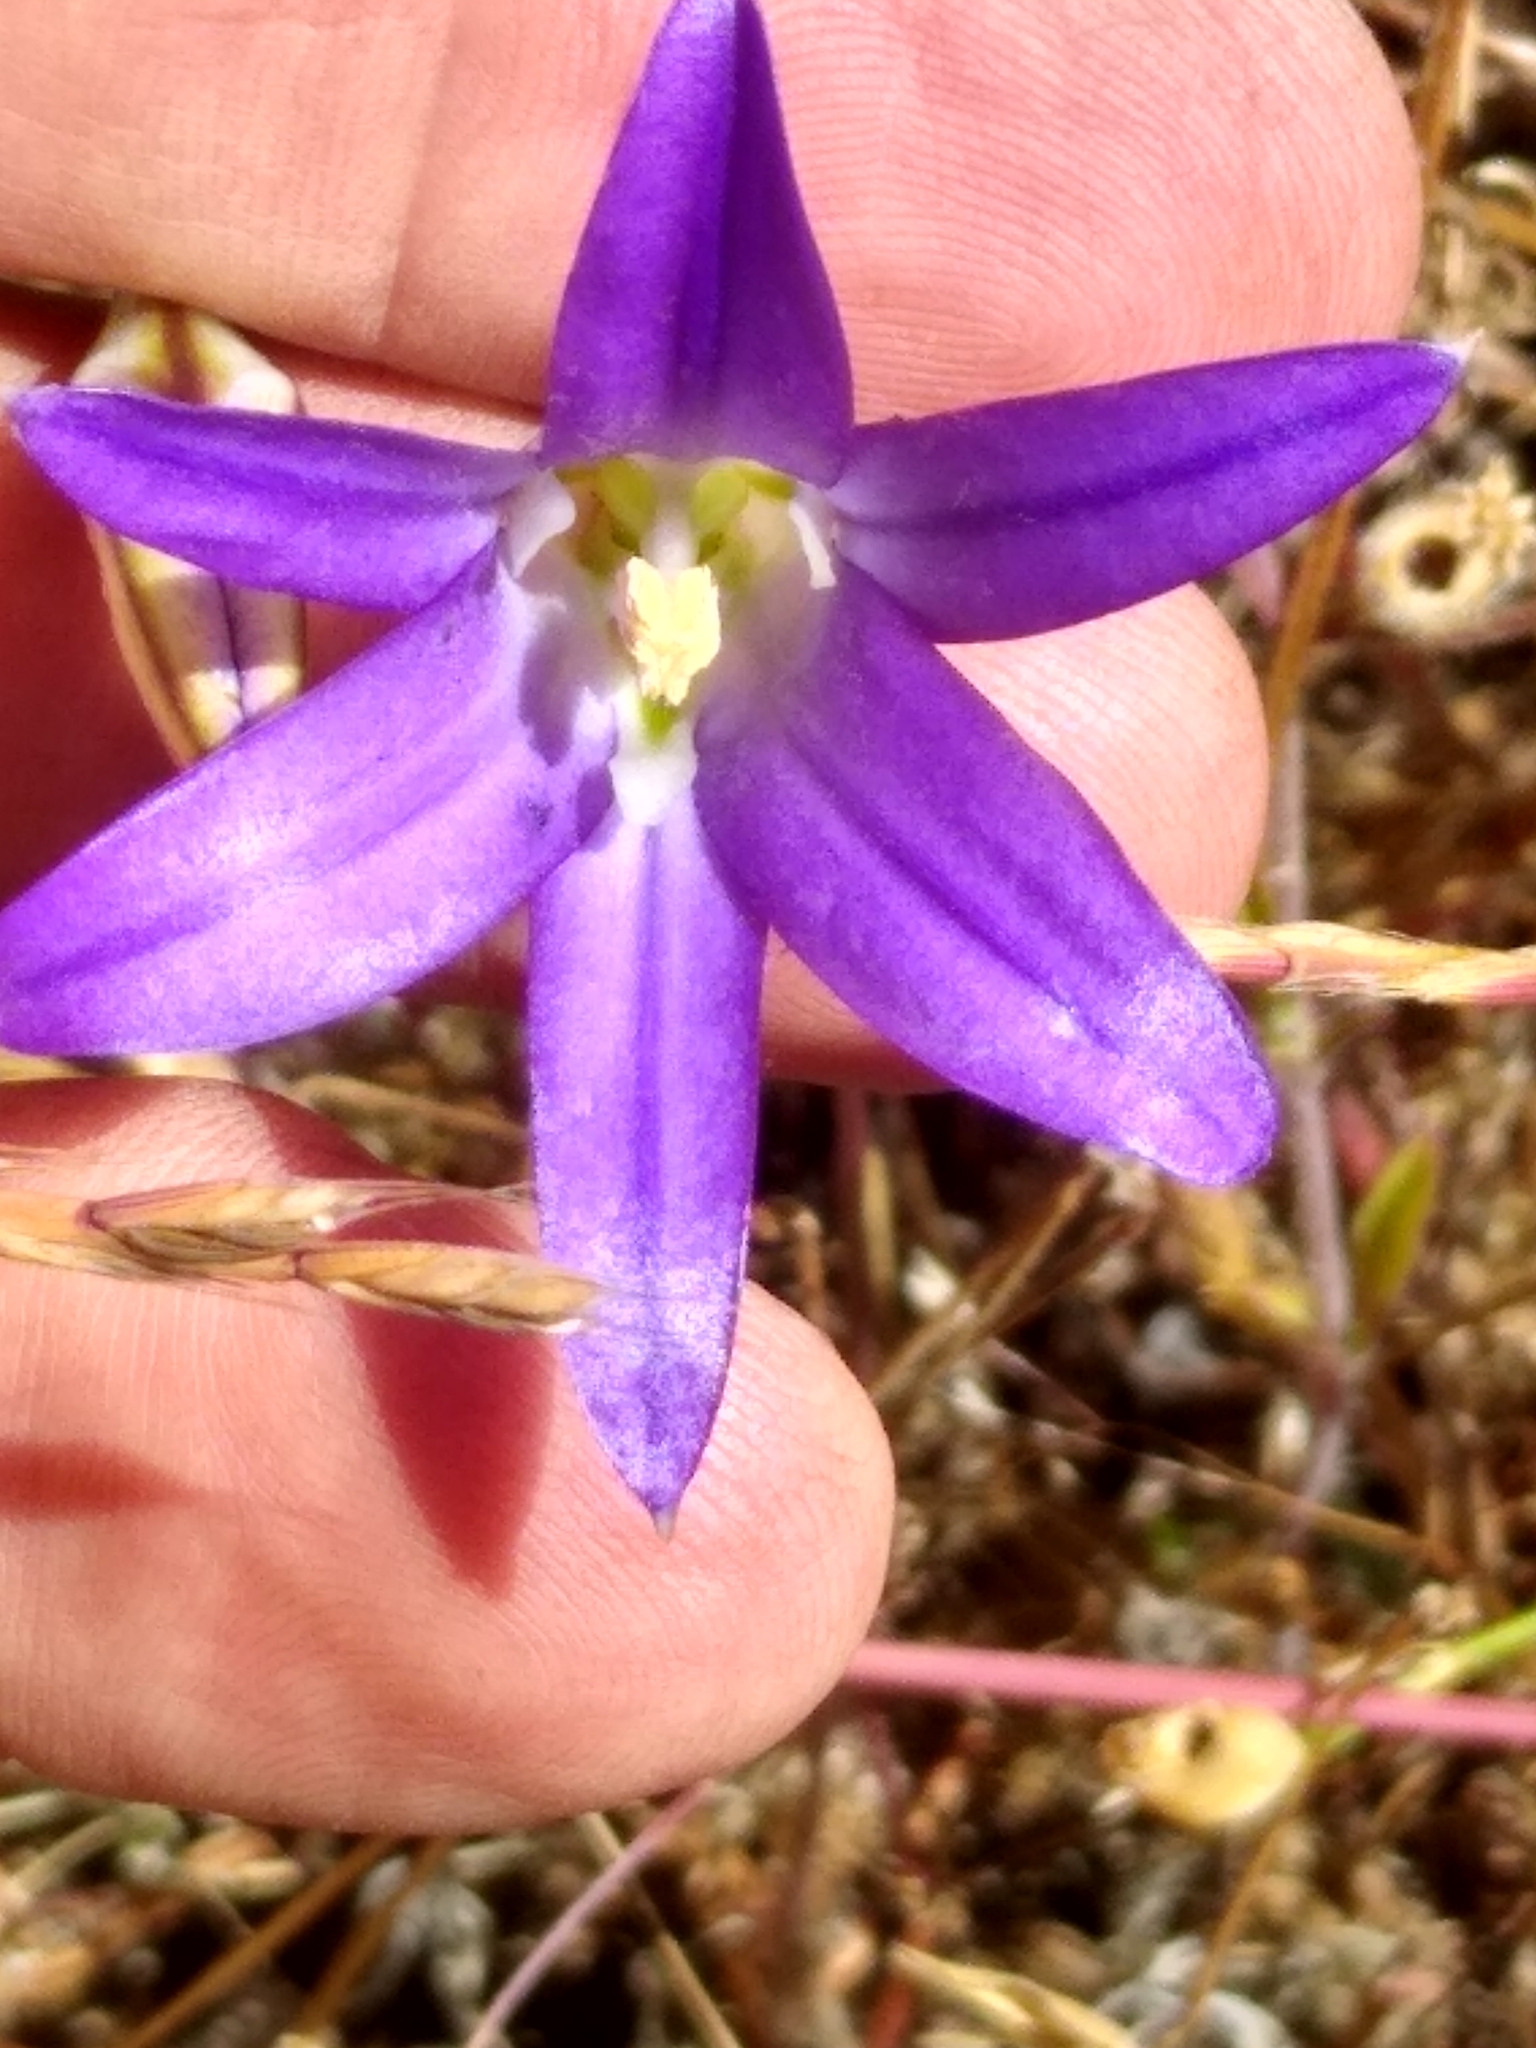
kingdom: Plantae
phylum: Tracheophyta
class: Liliopsida
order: Asparagales
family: Asparagaceae
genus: Brodiaea
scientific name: Brodiaea elegans
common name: Elegant cluster-lily
